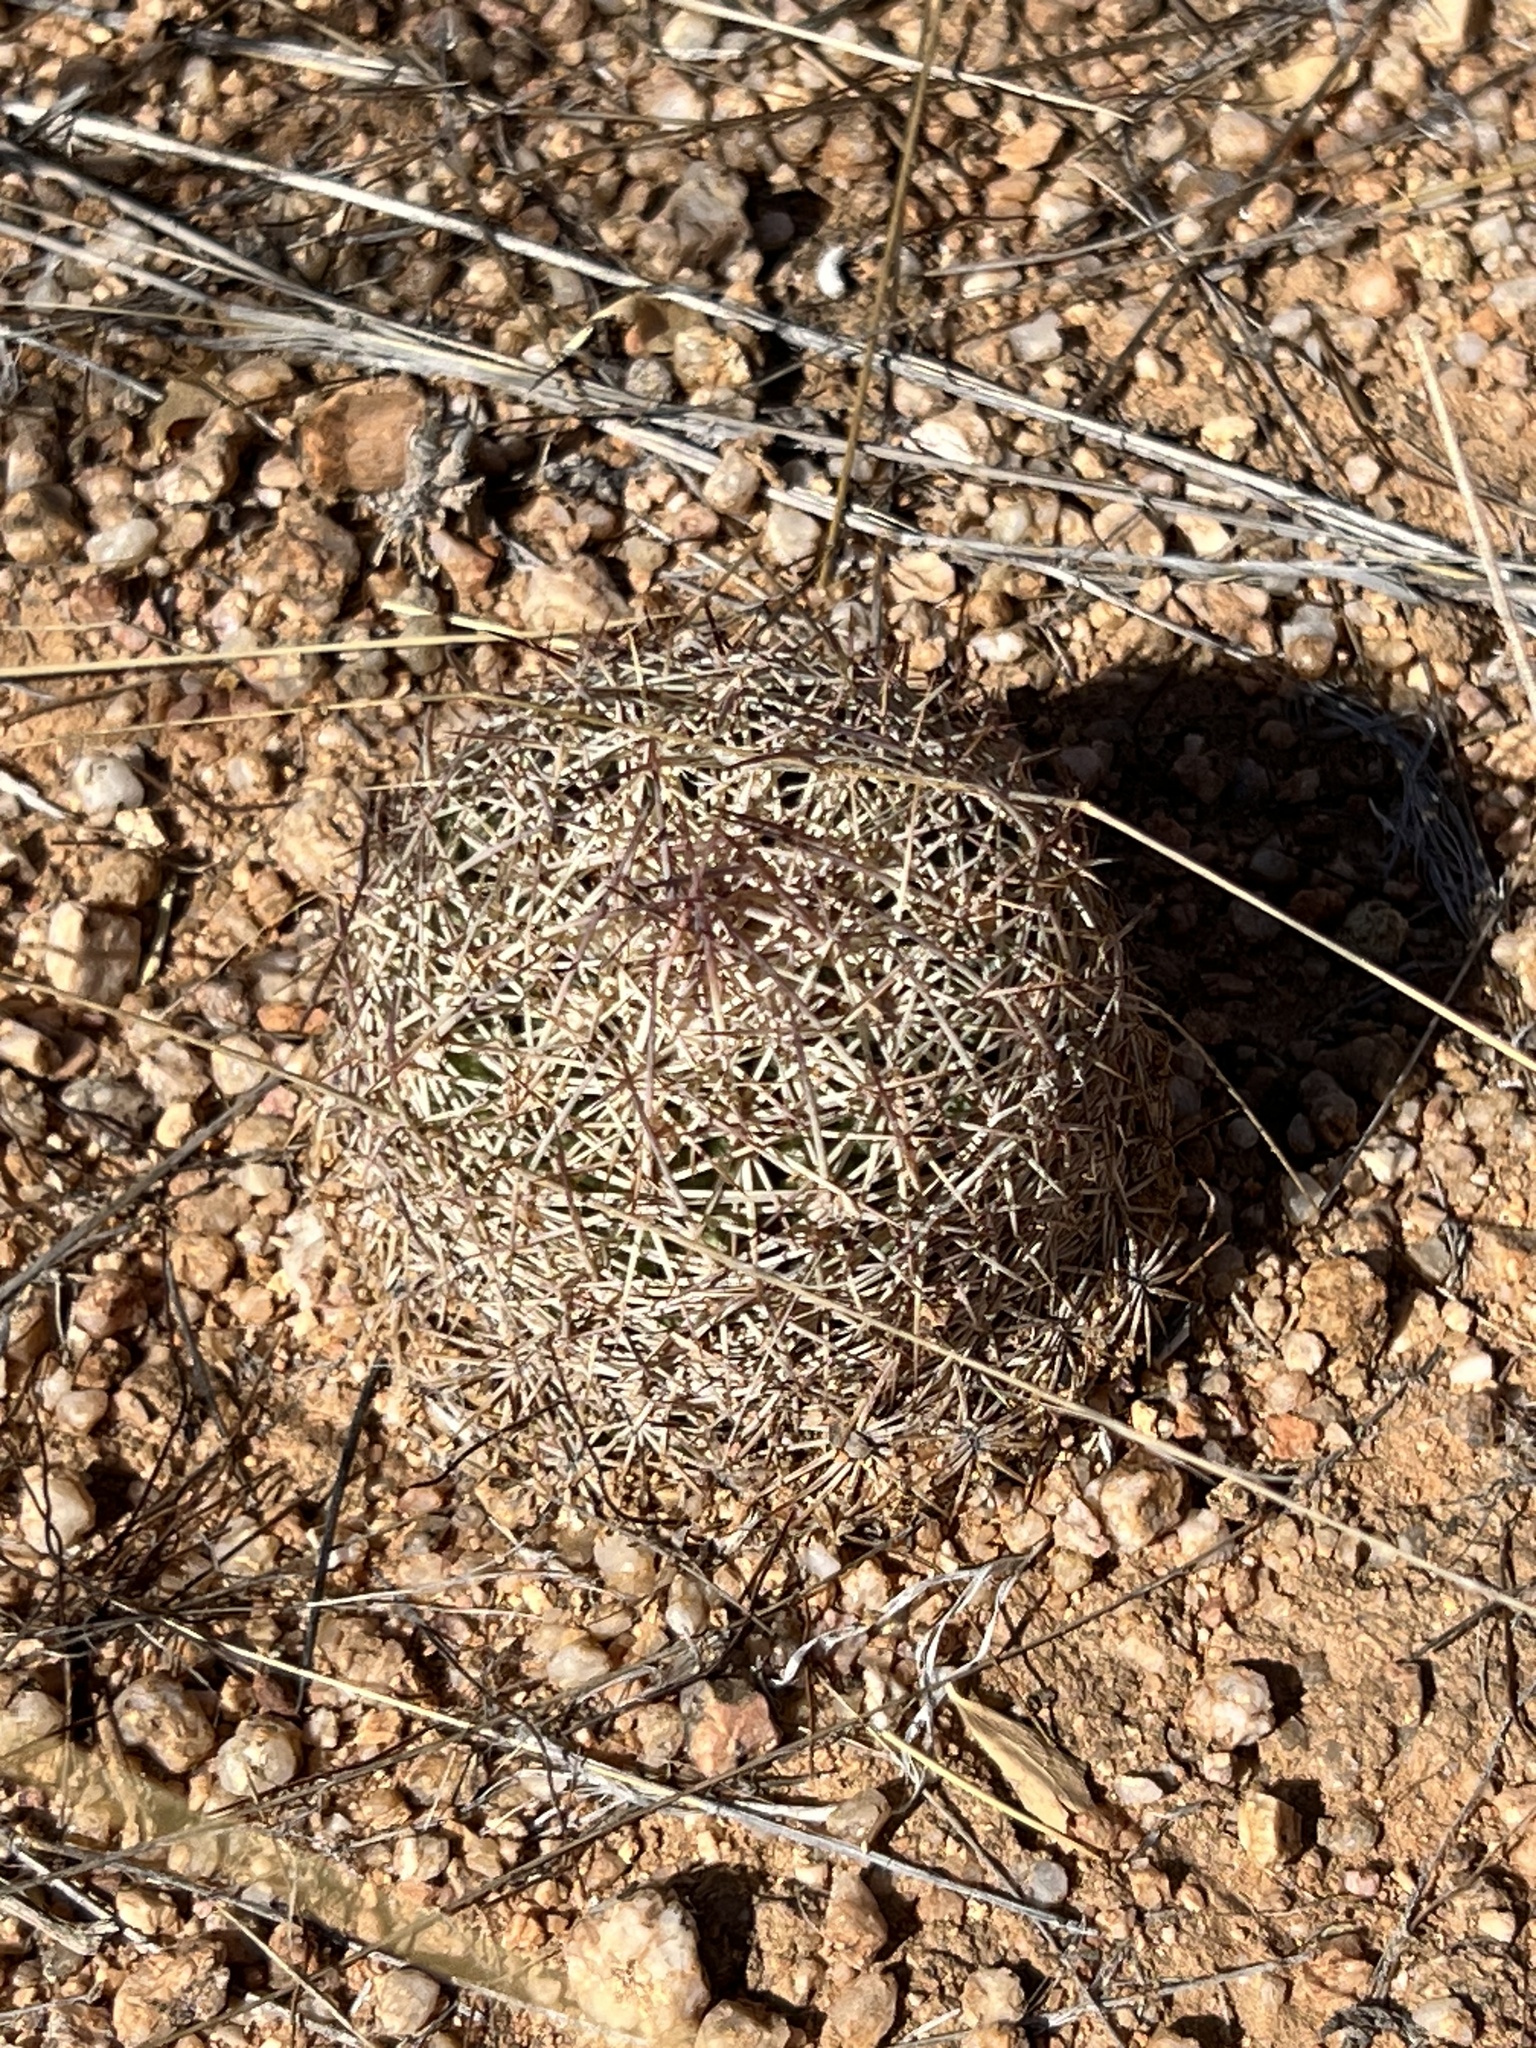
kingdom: Plantae
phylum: Tracheophyta
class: Magnoliopsida
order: Caryophyllales
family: Cactaceae
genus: Sclerocactus
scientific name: Sclerocactus johnsonii
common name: Eight-spine fishhook cactus
